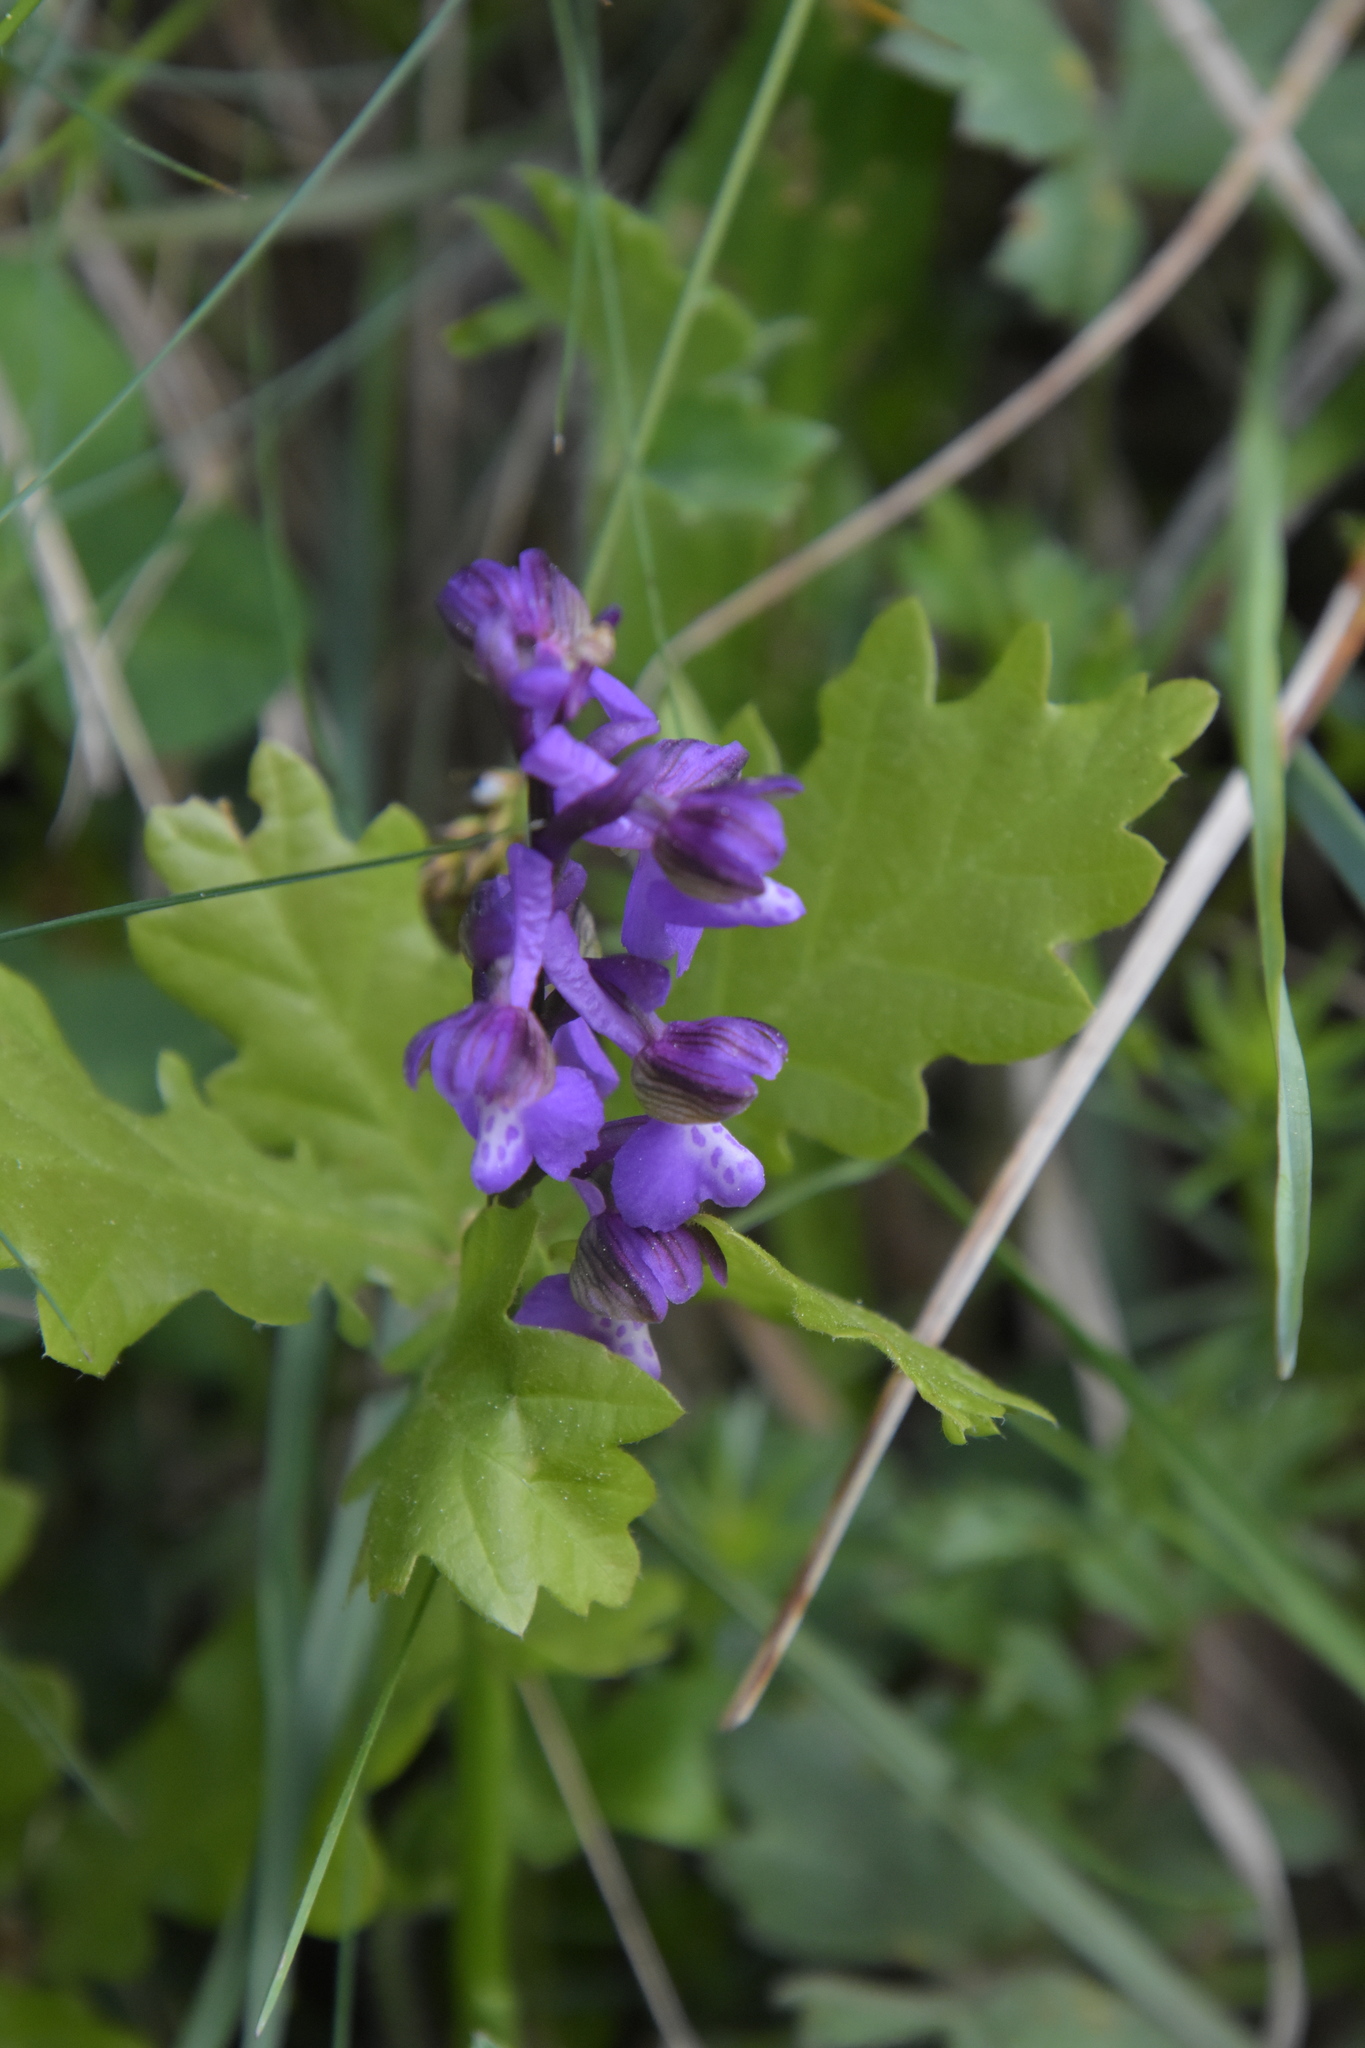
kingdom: Plantae
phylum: Tracheophyta
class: Liliopsida
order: Asparagales
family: Orchidaceae
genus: Anacamptis
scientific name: Anacamptis morio
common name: Green-winged orchid
